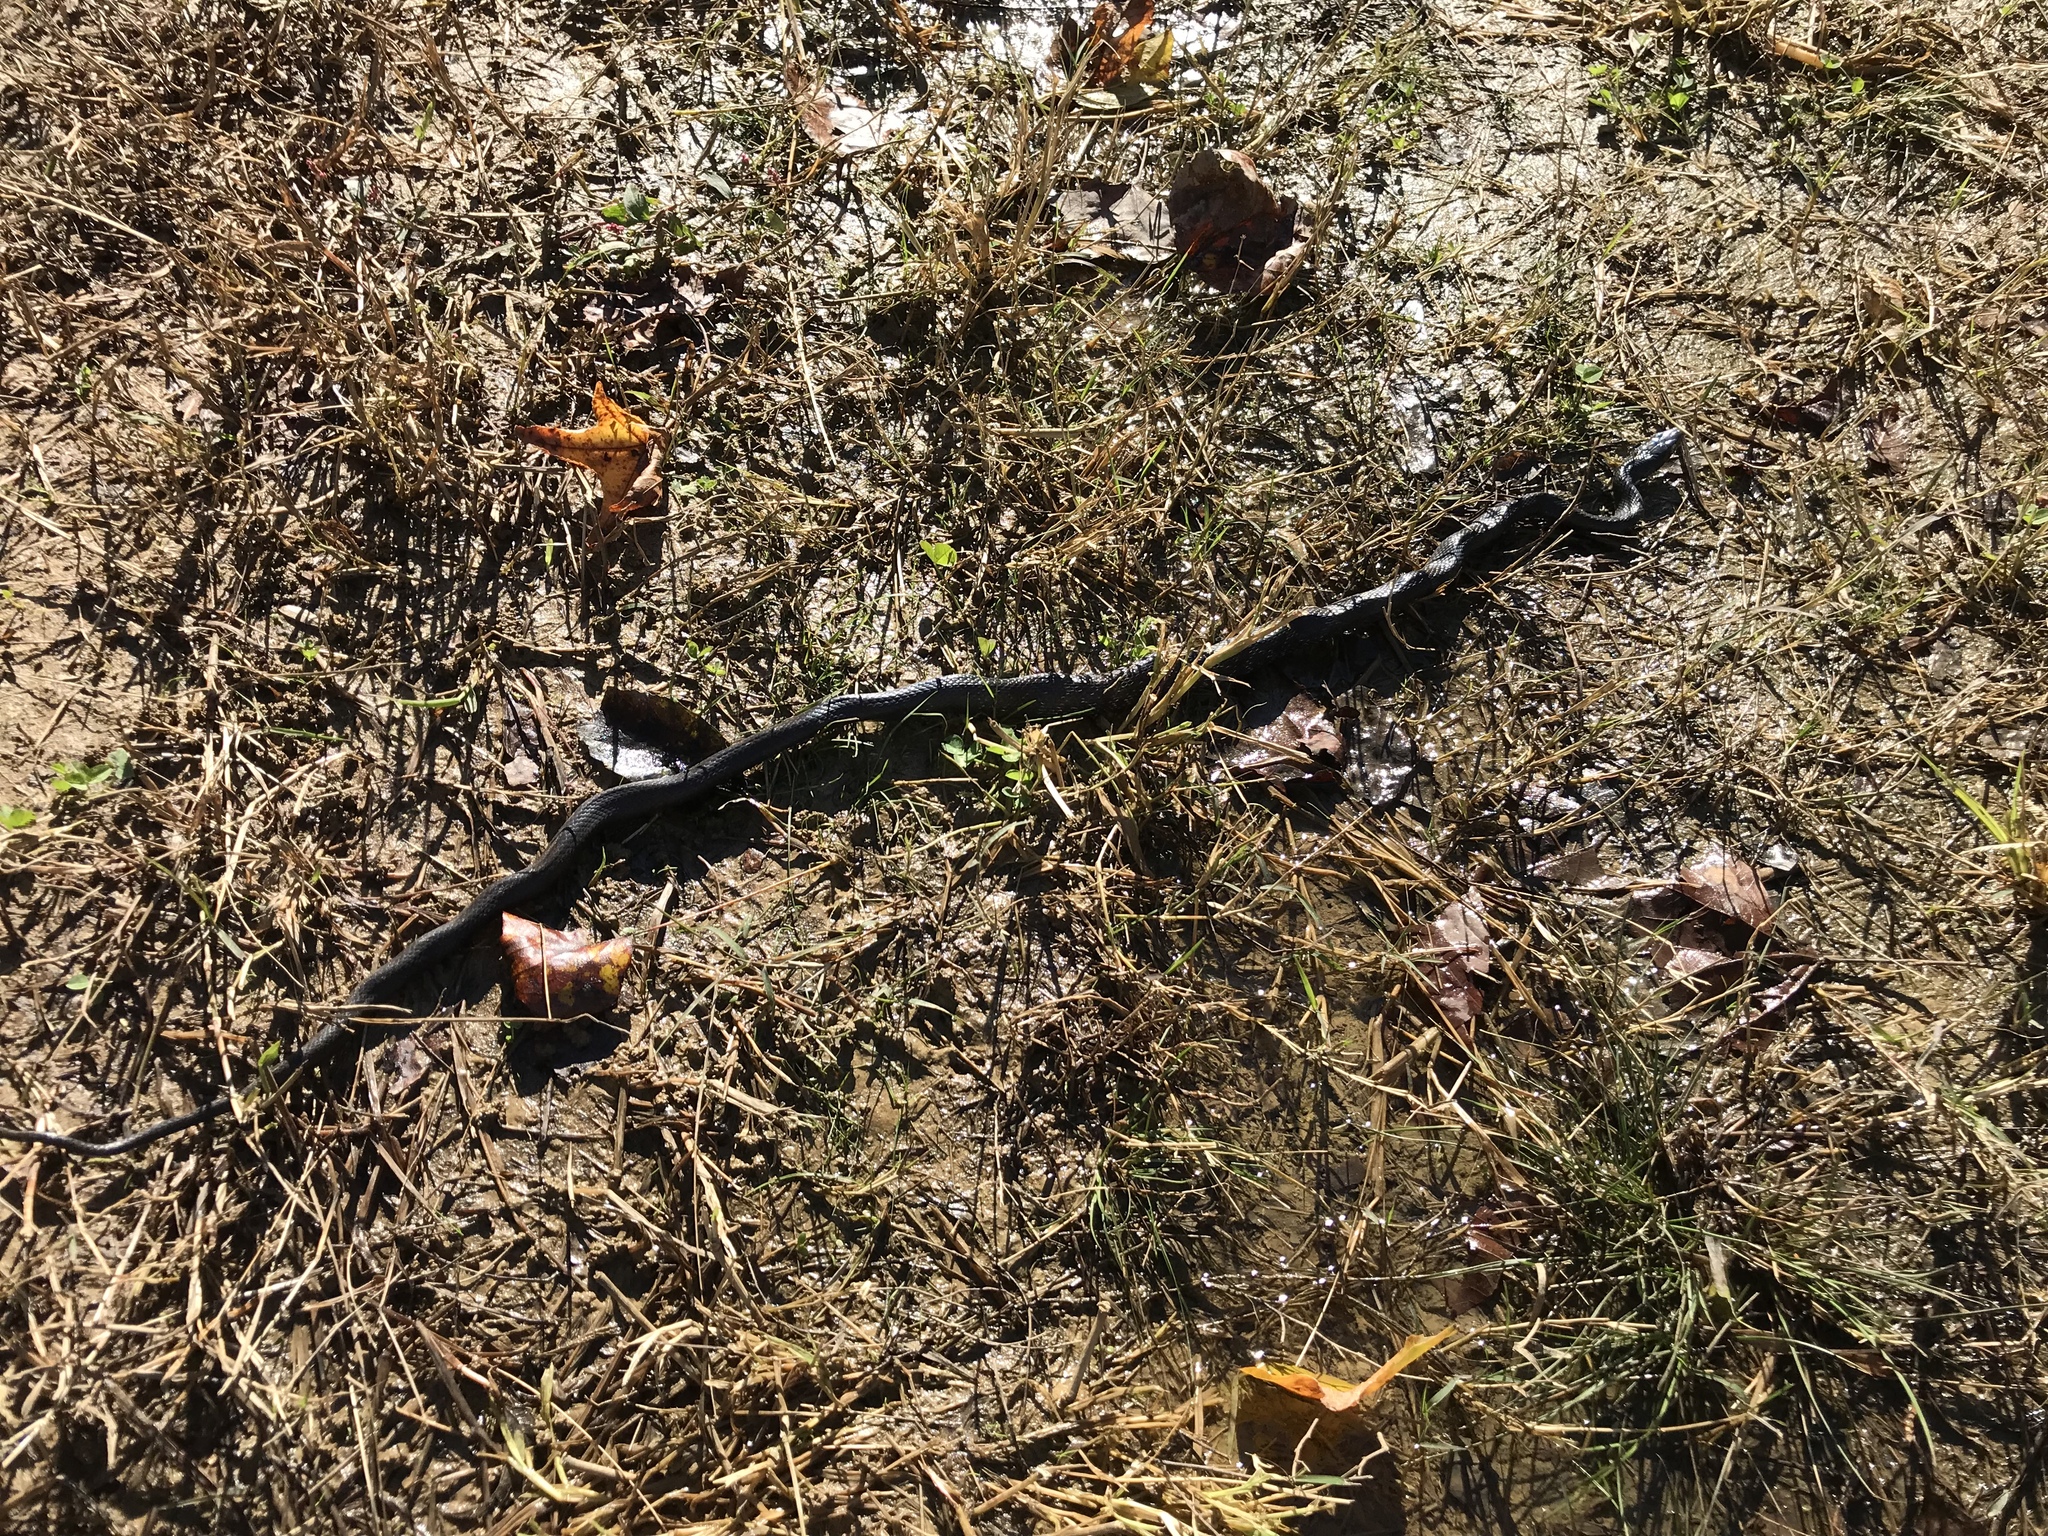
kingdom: Animalia
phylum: Chordata
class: Squamata
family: Colubridae
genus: Pantherophis
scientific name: Pantherophis alleghaniensis
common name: Eastern rat snake
